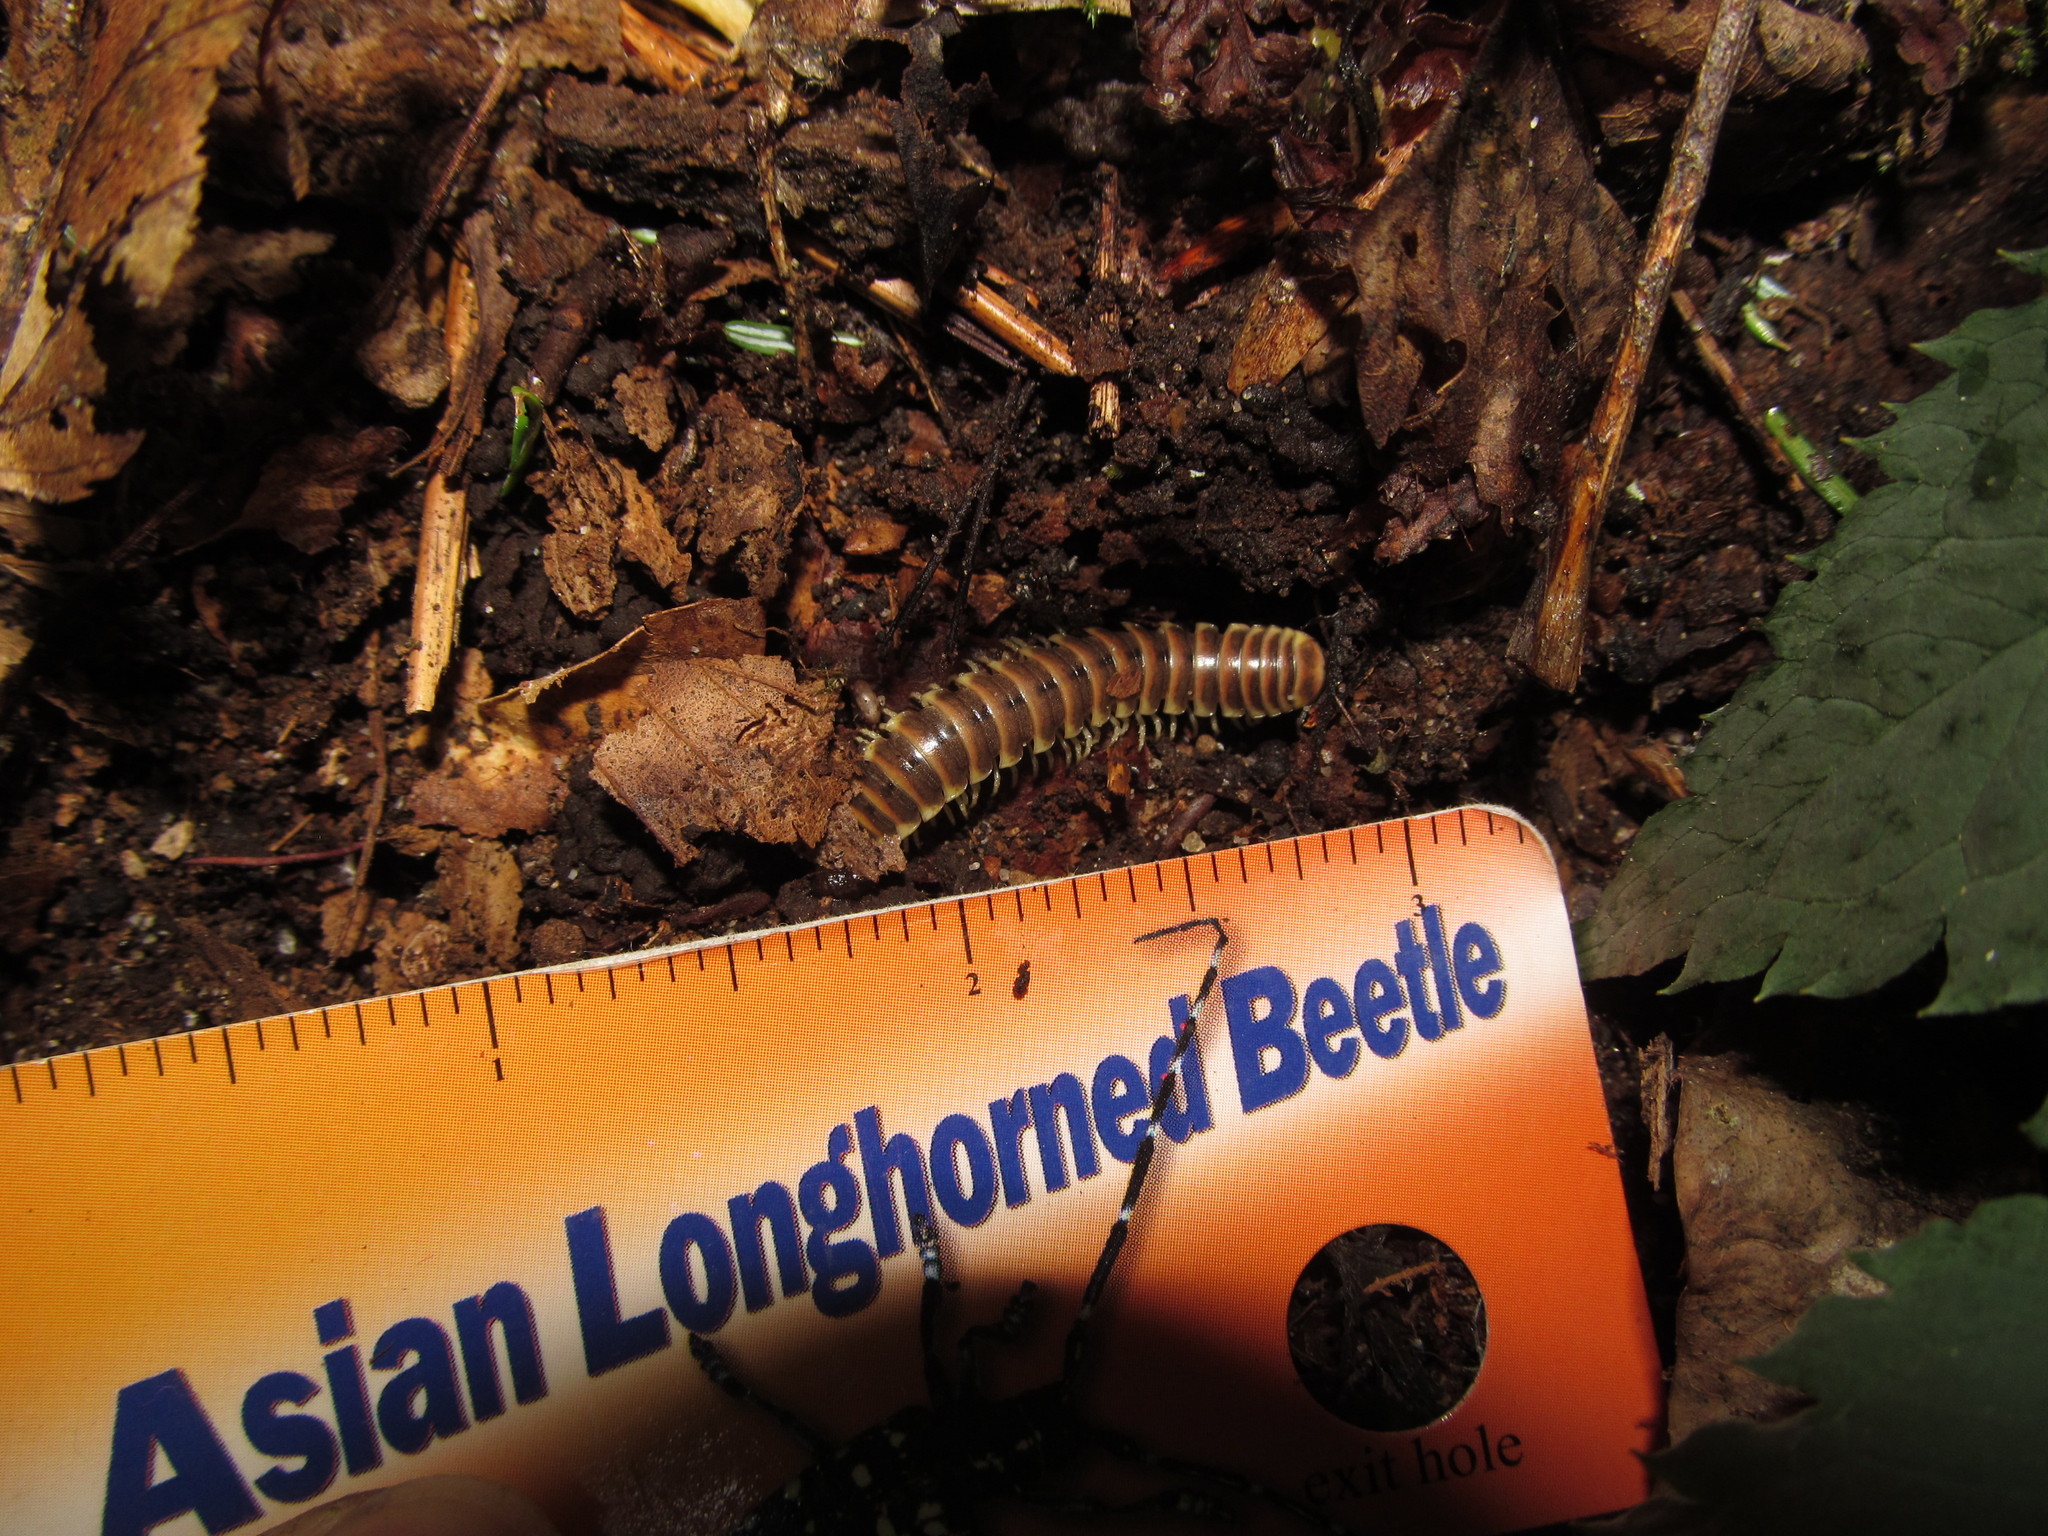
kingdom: Animalia
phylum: Arthropoda
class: Diplopoda
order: Polydesmida
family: Xystodesmidae
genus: Pleuroloma
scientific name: Pleuroloma flavipes
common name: Yellow-legged pleuroloma
